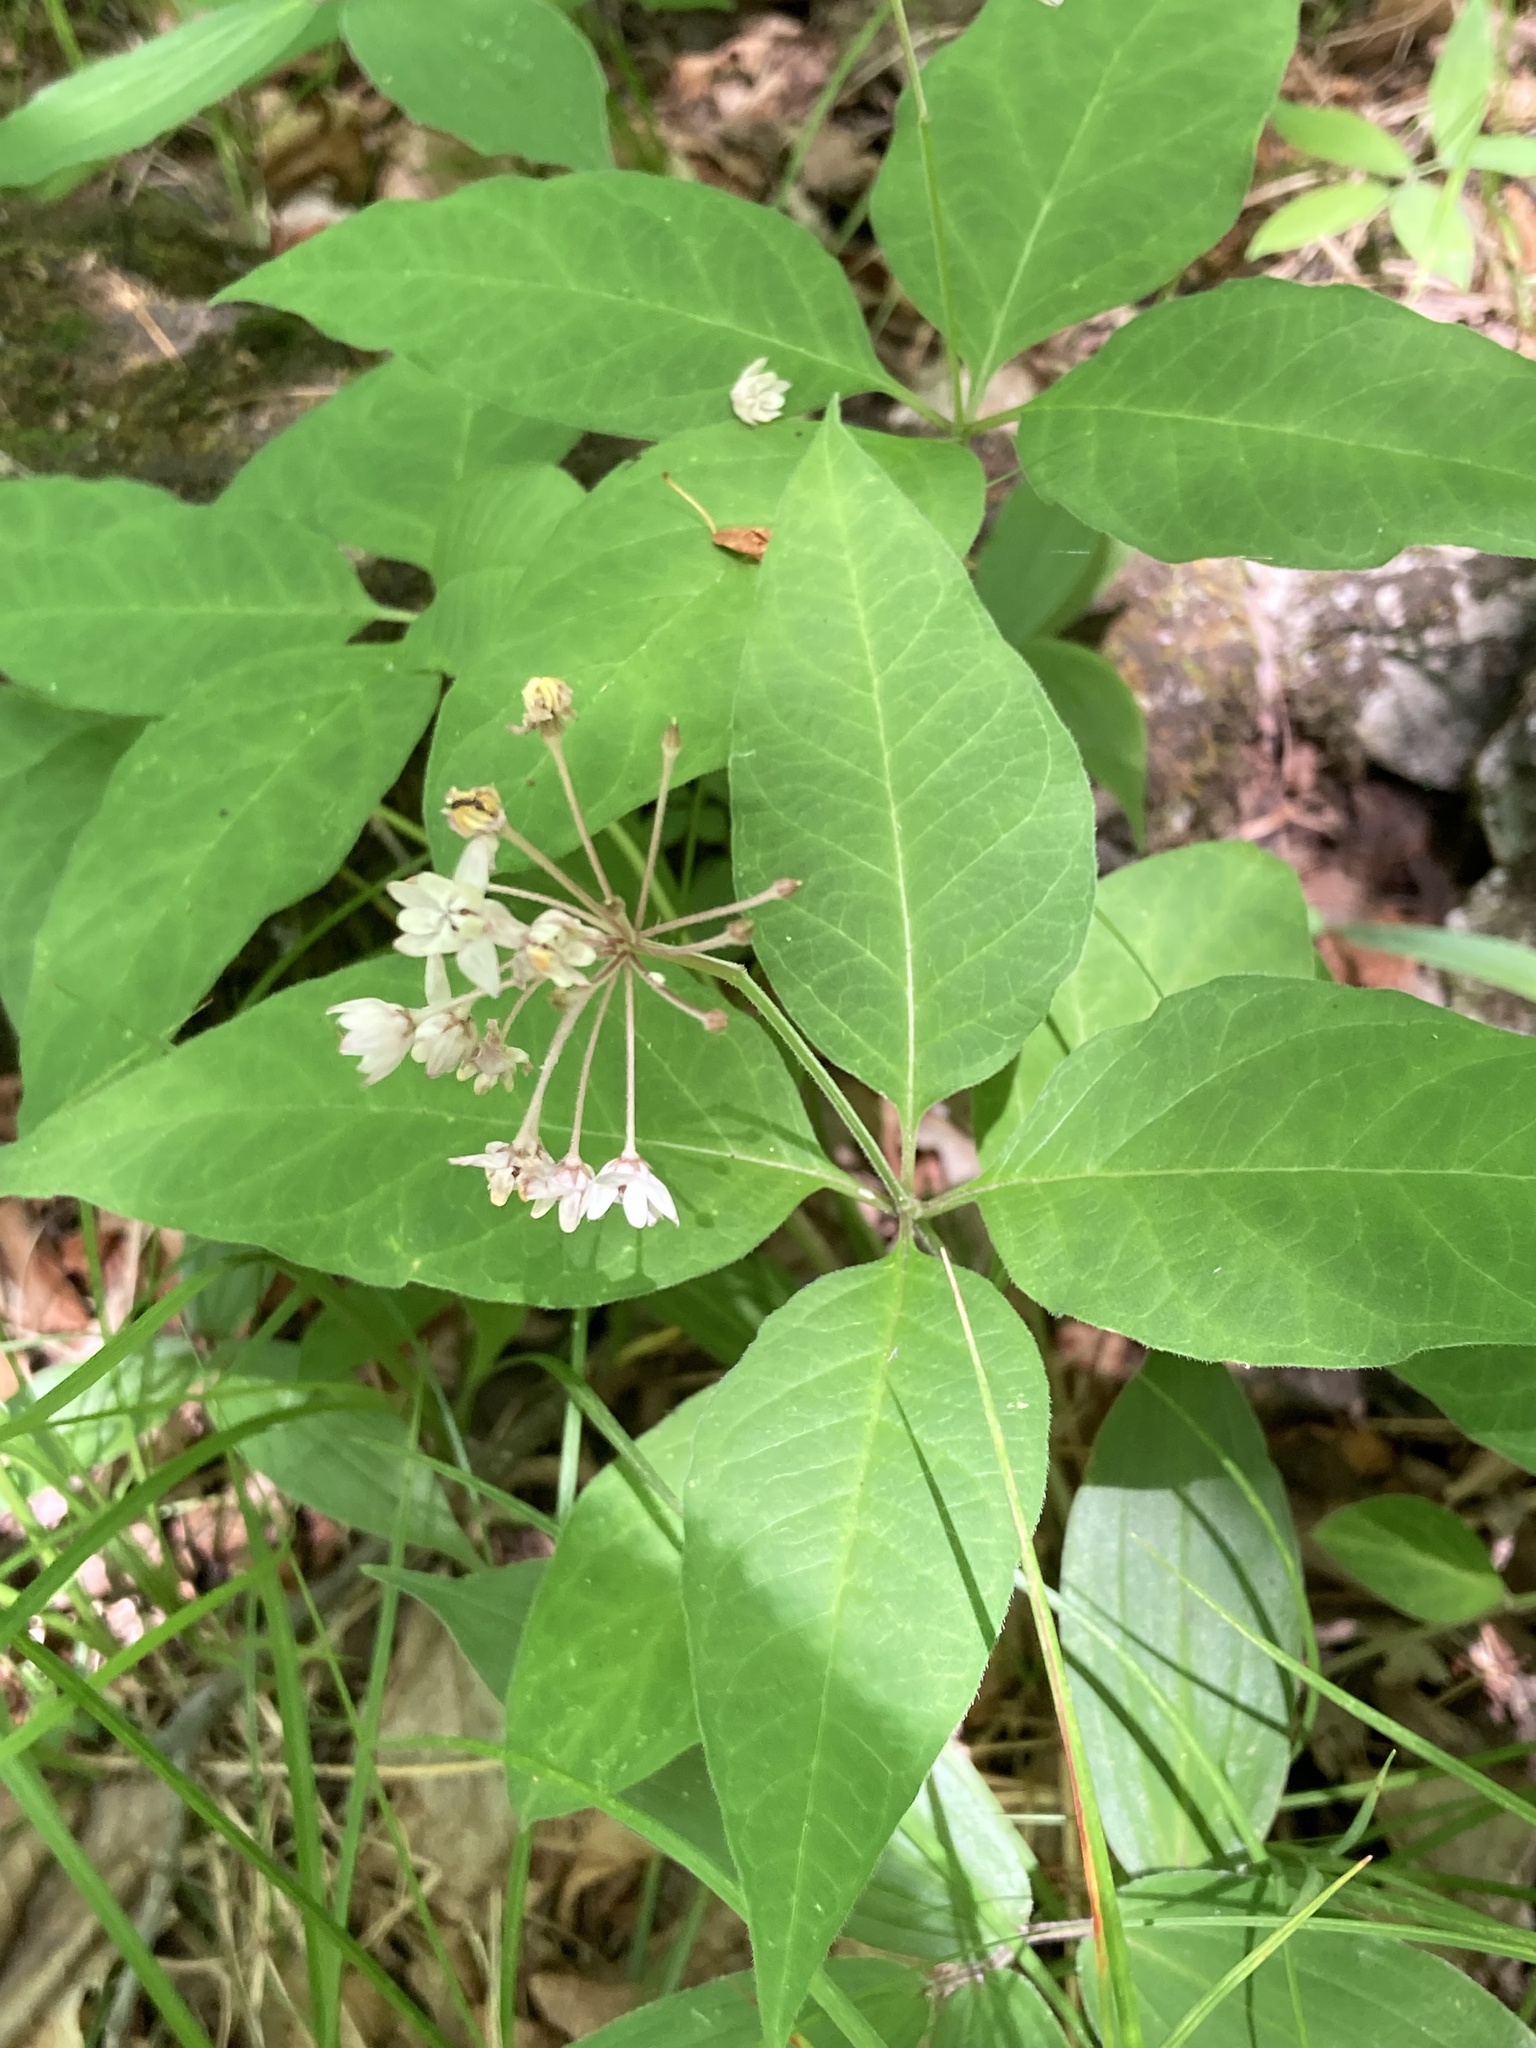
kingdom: Plantae
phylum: Tracheophyta
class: Magnoliopsida
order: Gentianales
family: Apocynaceae
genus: Asclepias
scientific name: Asclepias quadrifolia
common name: Whorled milkweed
